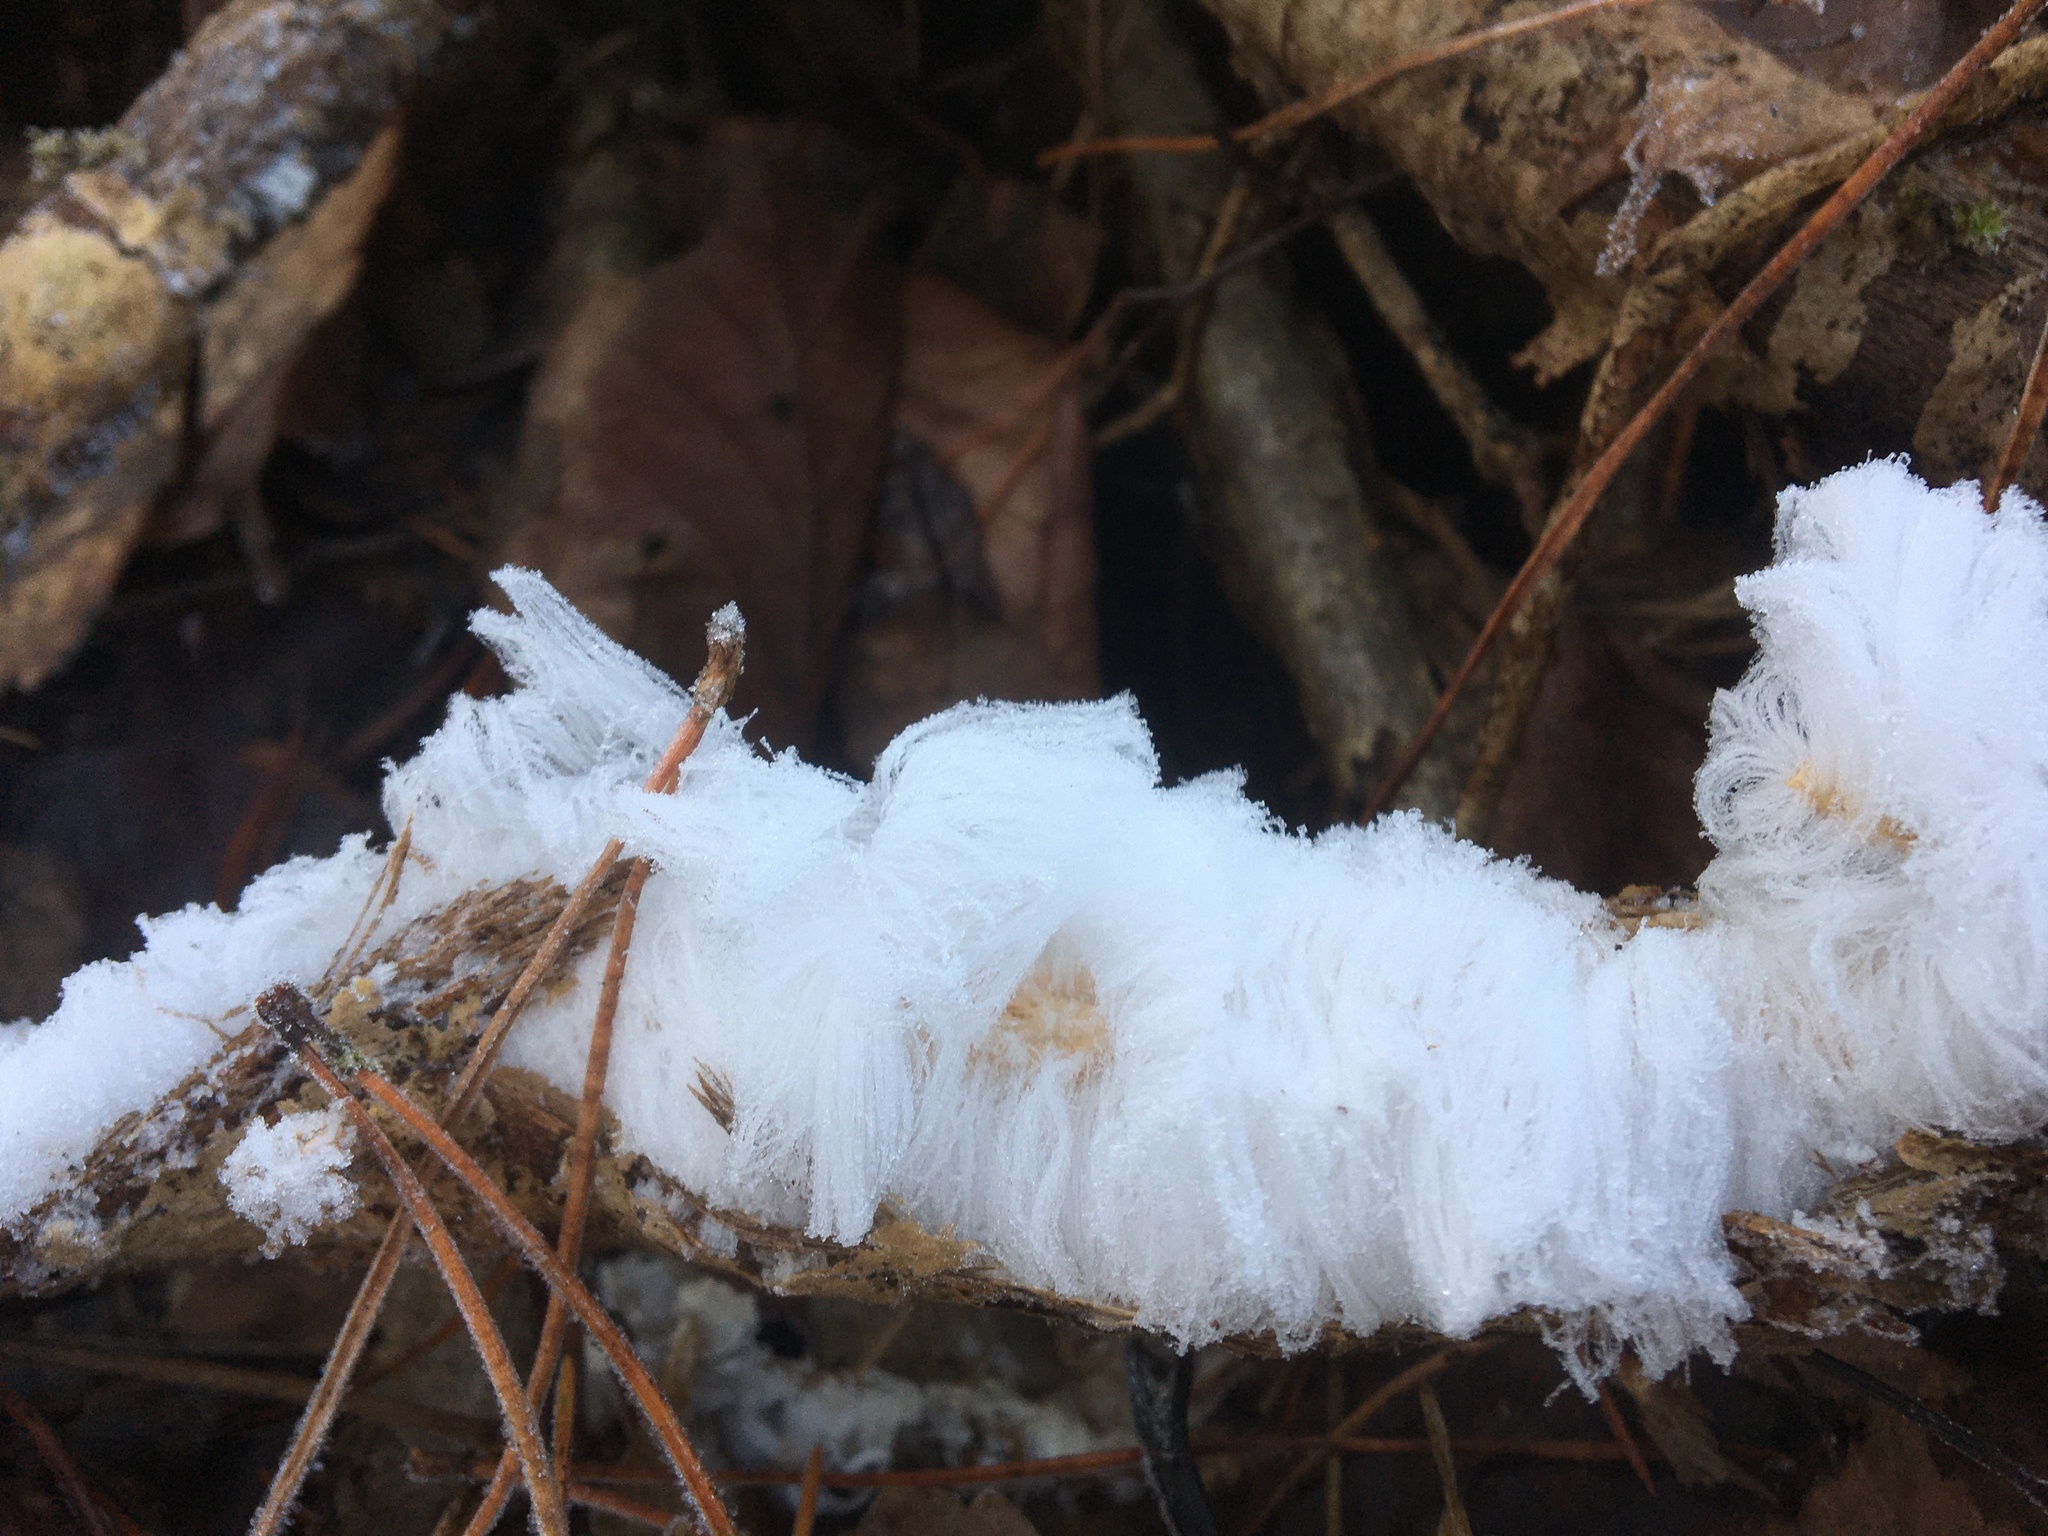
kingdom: Fungi
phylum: Basidiomycota
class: Agaricomycetes
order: Auriculariales
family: Auriculariaceae
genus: Exidiopsis
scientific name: Exidiopsis effusa
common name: Hair ice crust
